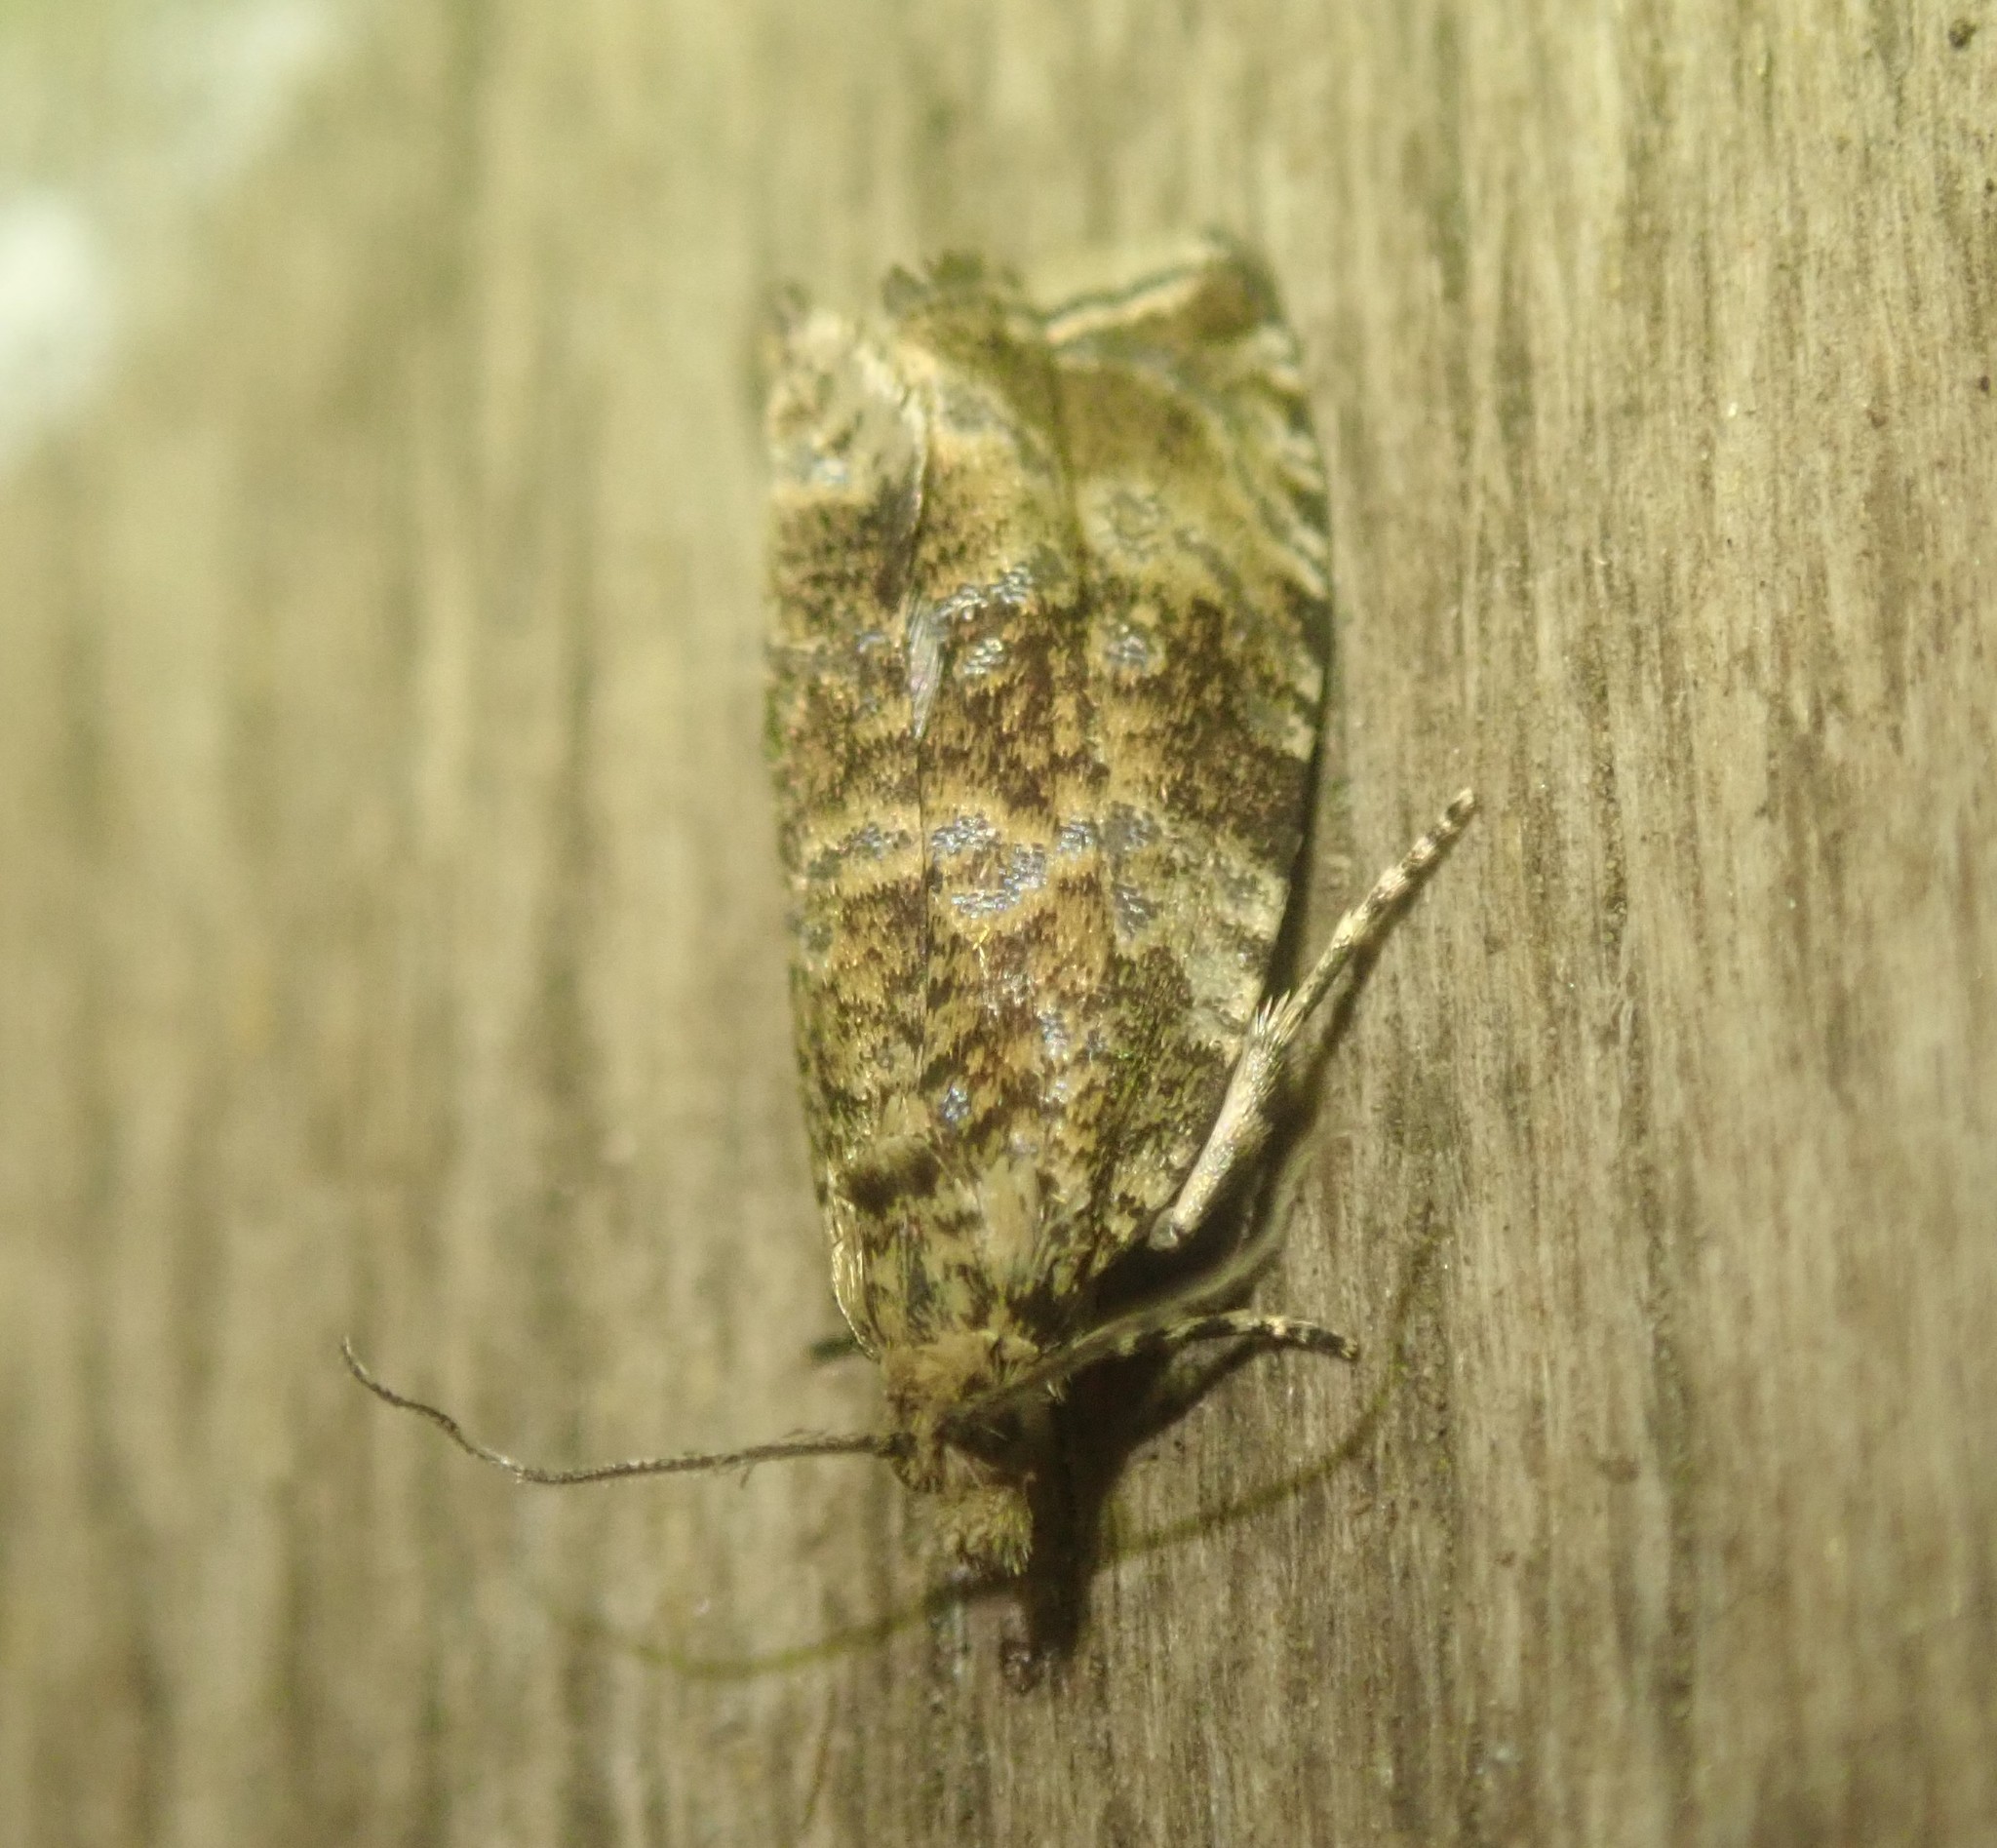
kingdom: Animalia
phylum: Arthropoda
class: Insecta
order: Lepidoptera
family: Tortricidae
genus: Syricoris
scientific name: Syricoris lacunana
